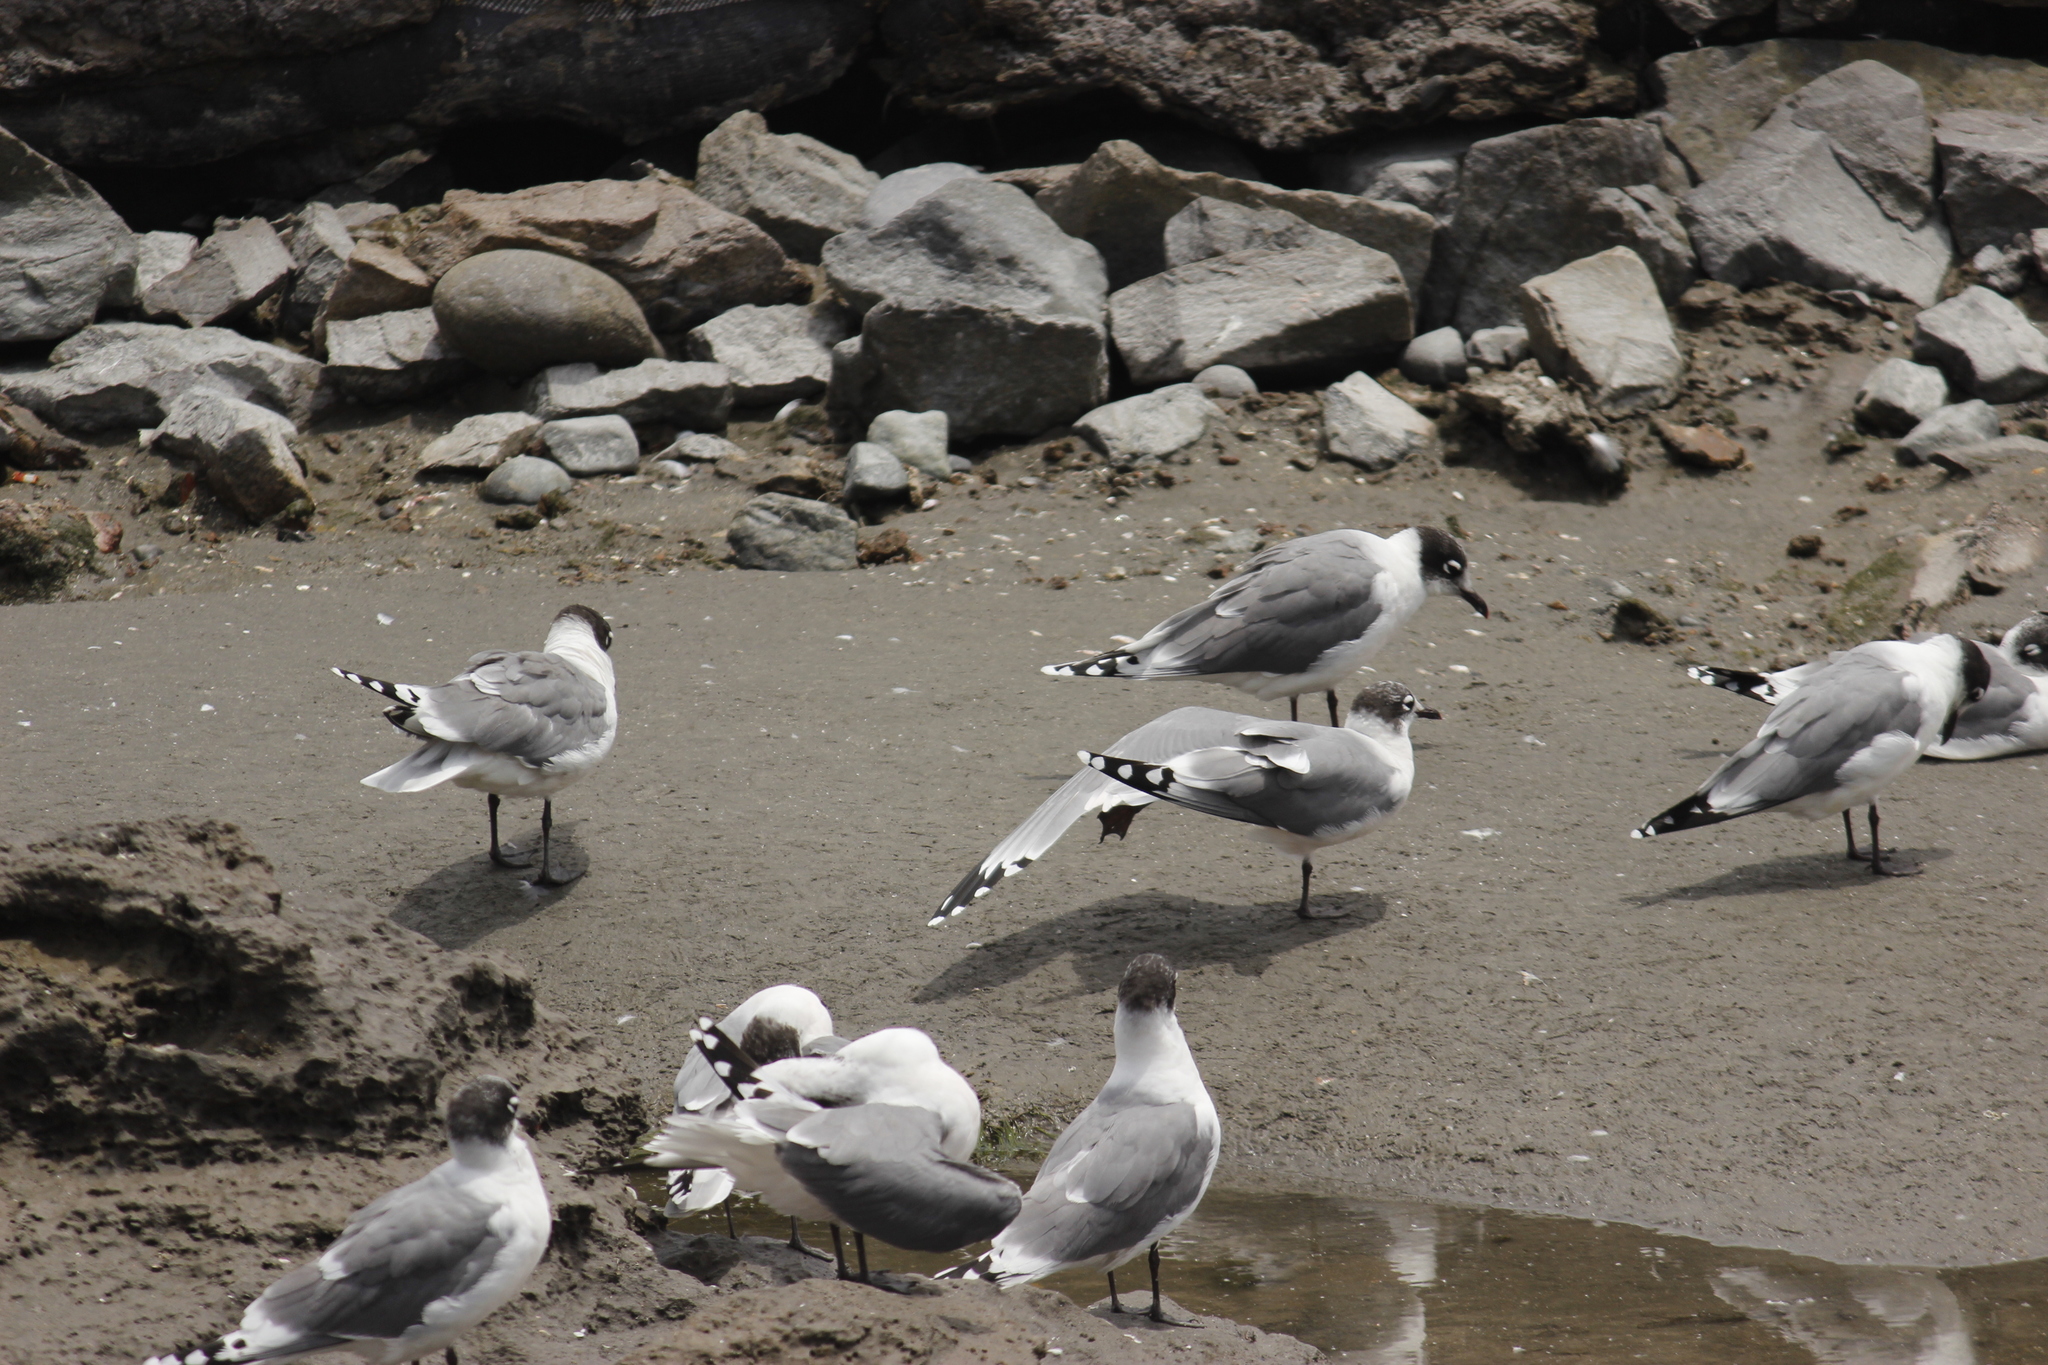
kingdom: Animalia
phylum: Chordata
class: Aves
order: Charadriiformes
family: Laridae
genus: Leucophaeus
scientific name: Leucophaeus pipixcan
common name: Franklin's gull
